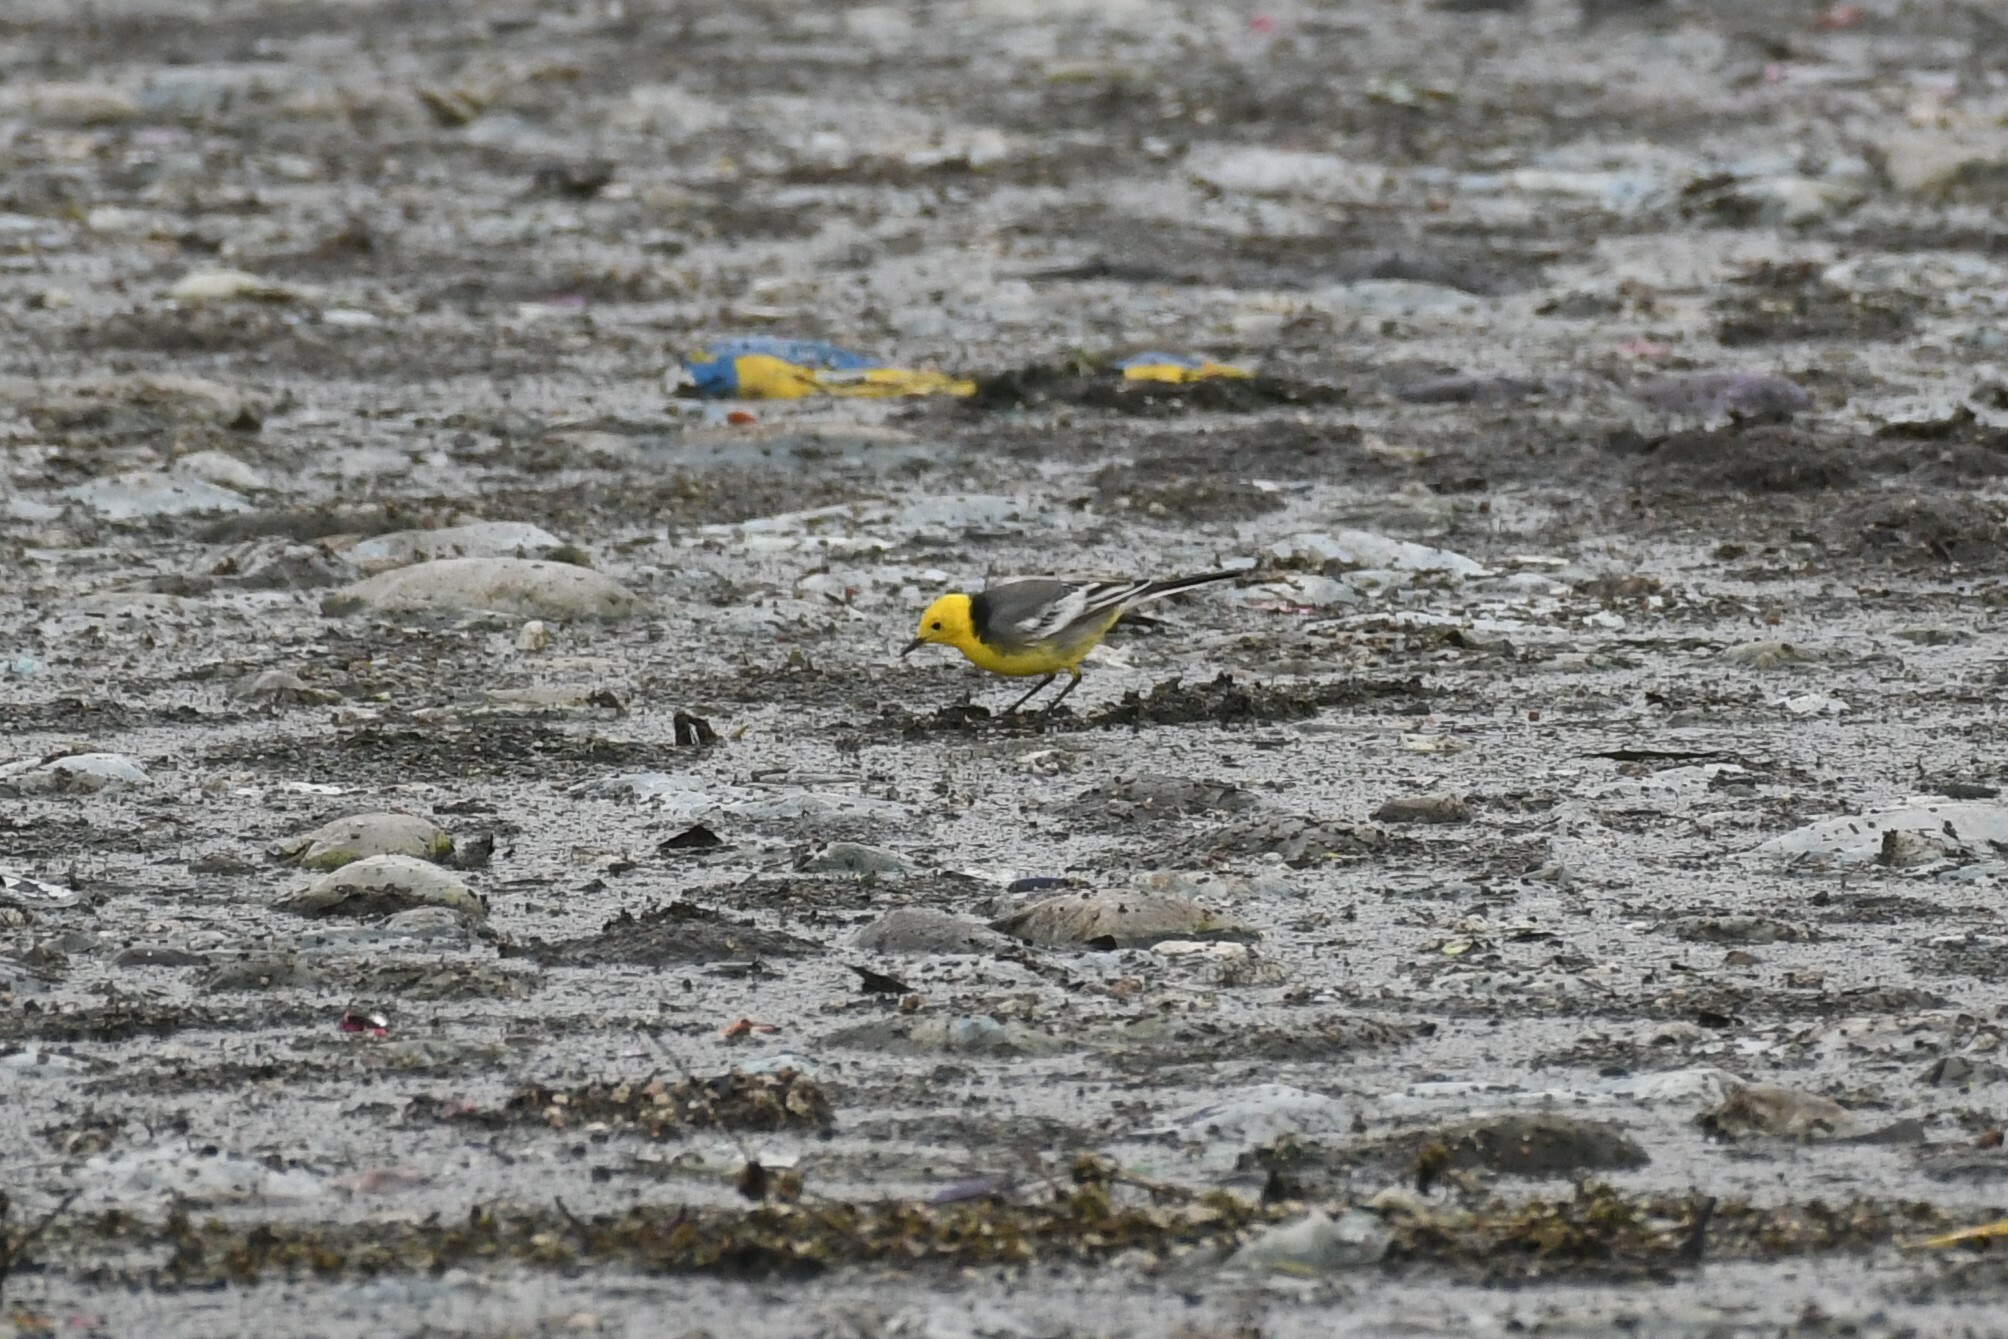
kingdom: Animalia
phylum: Chordata
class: Aves
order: Passeriformes
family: Motacillidae
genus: Motacilla
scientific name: Motacilla citreola
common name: Citrine wagtail
